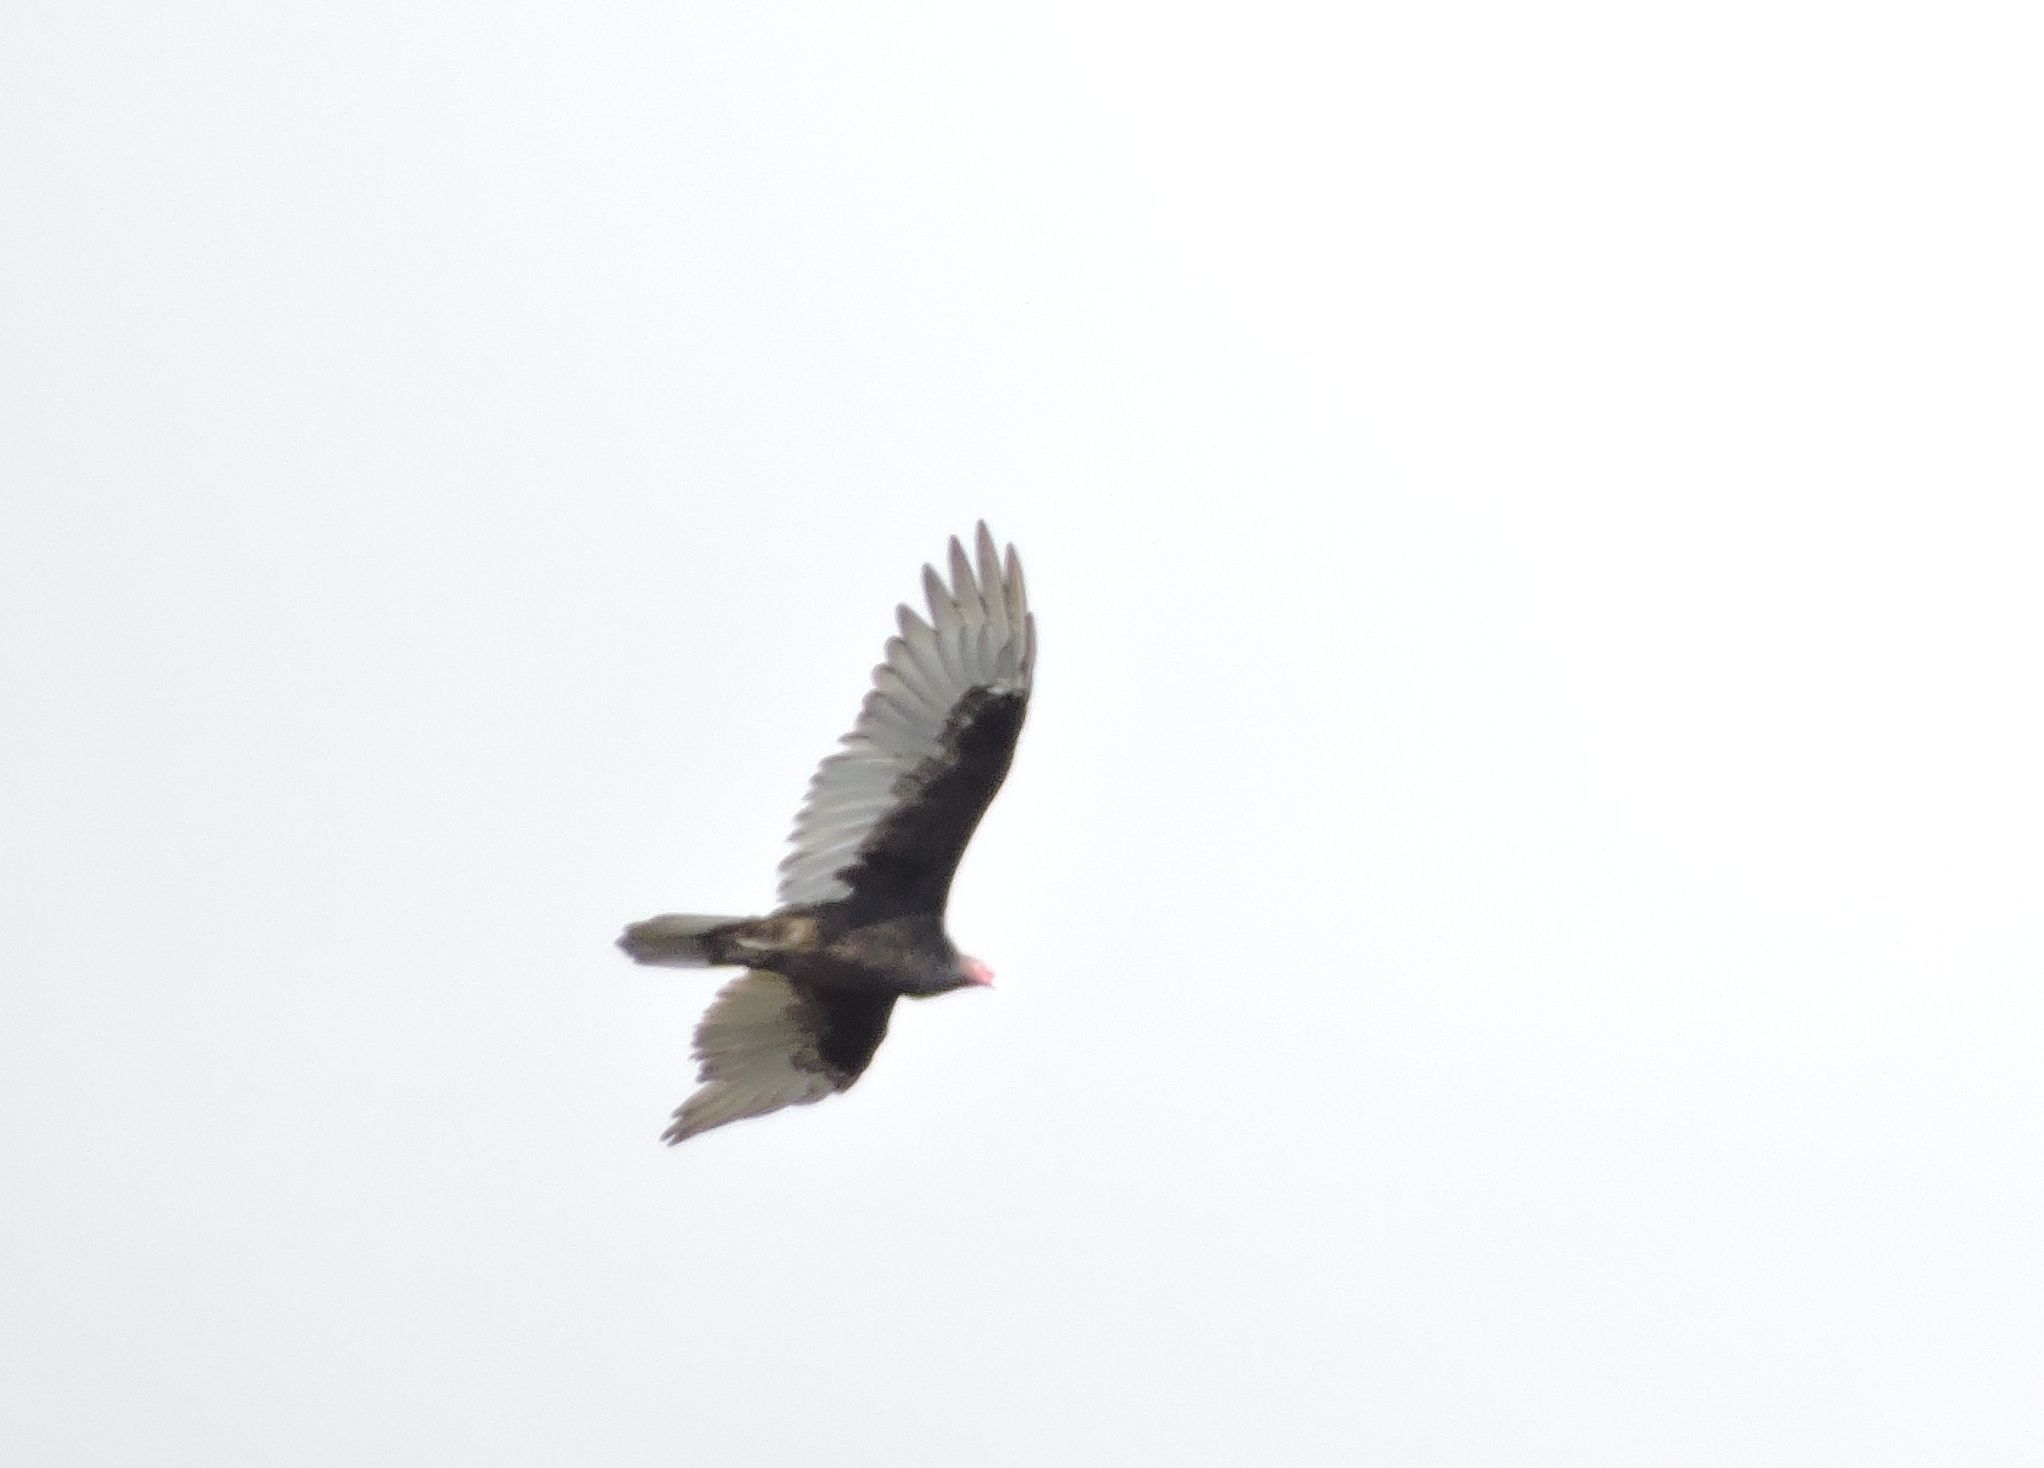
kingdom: Animalia
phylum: Chordata
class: Aves
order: Accipitriformes
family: Cathartidae
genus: Cathartes
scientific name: Cathartes aura
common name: Turkey vulture
